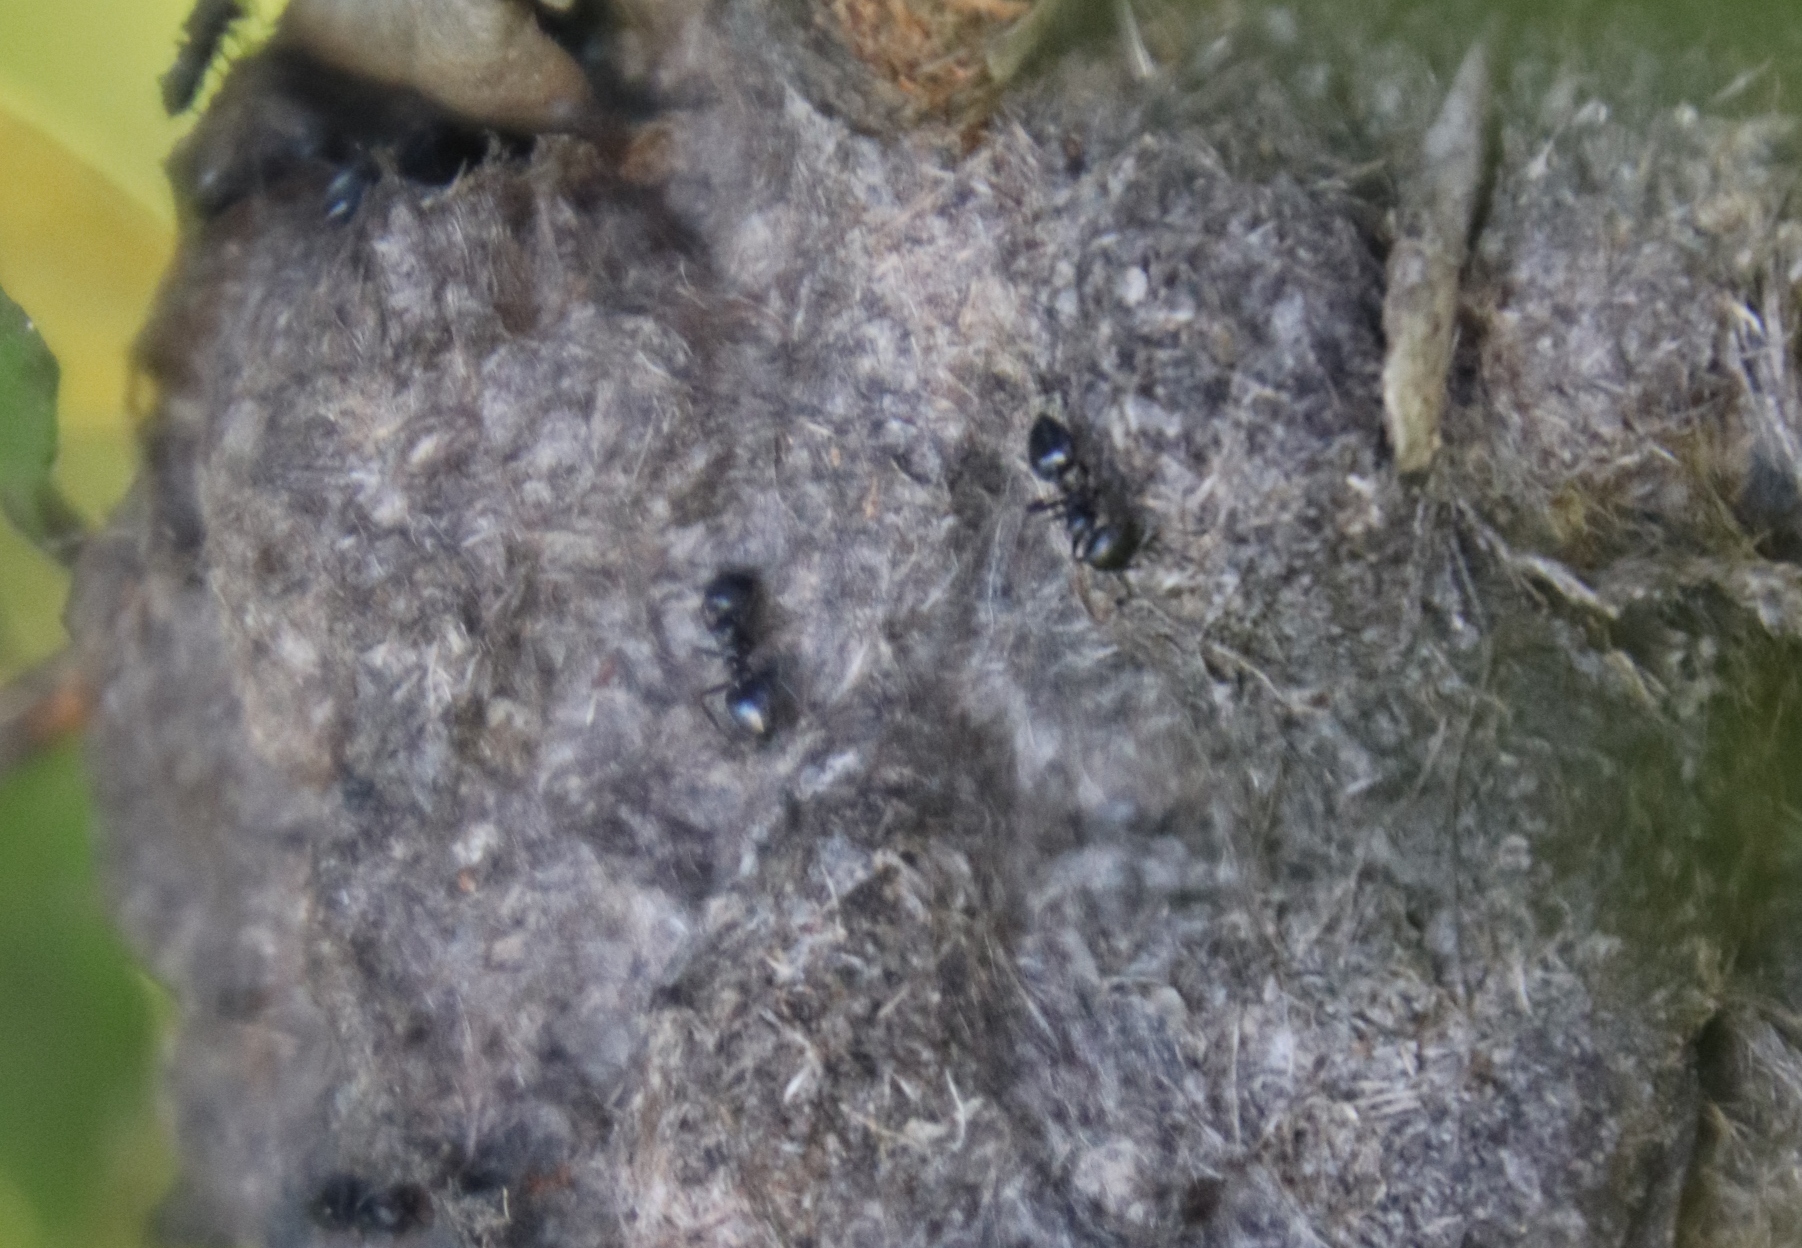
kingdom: Animalia
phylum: Arthropoda
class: Insecta
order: Hymenoptera
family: Formicidae
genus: Crematogaster
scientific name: Crematogaster peringueyi
